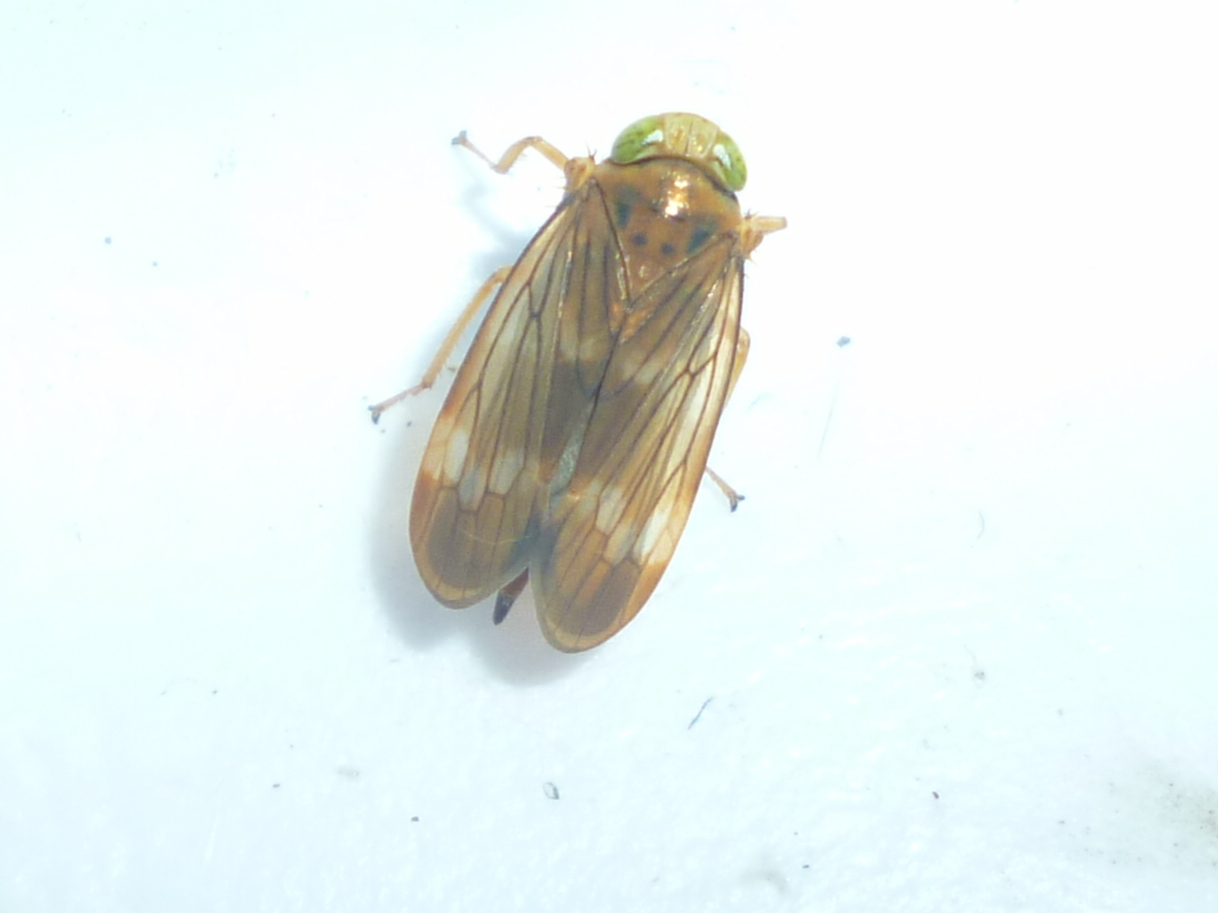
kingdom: Animalia
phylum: Arthropoda
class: Insecta
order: Hemiptera
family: Cicadellidae
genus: Jikradia
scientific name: Jikradia olitoria
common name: Coppery leafhopper
